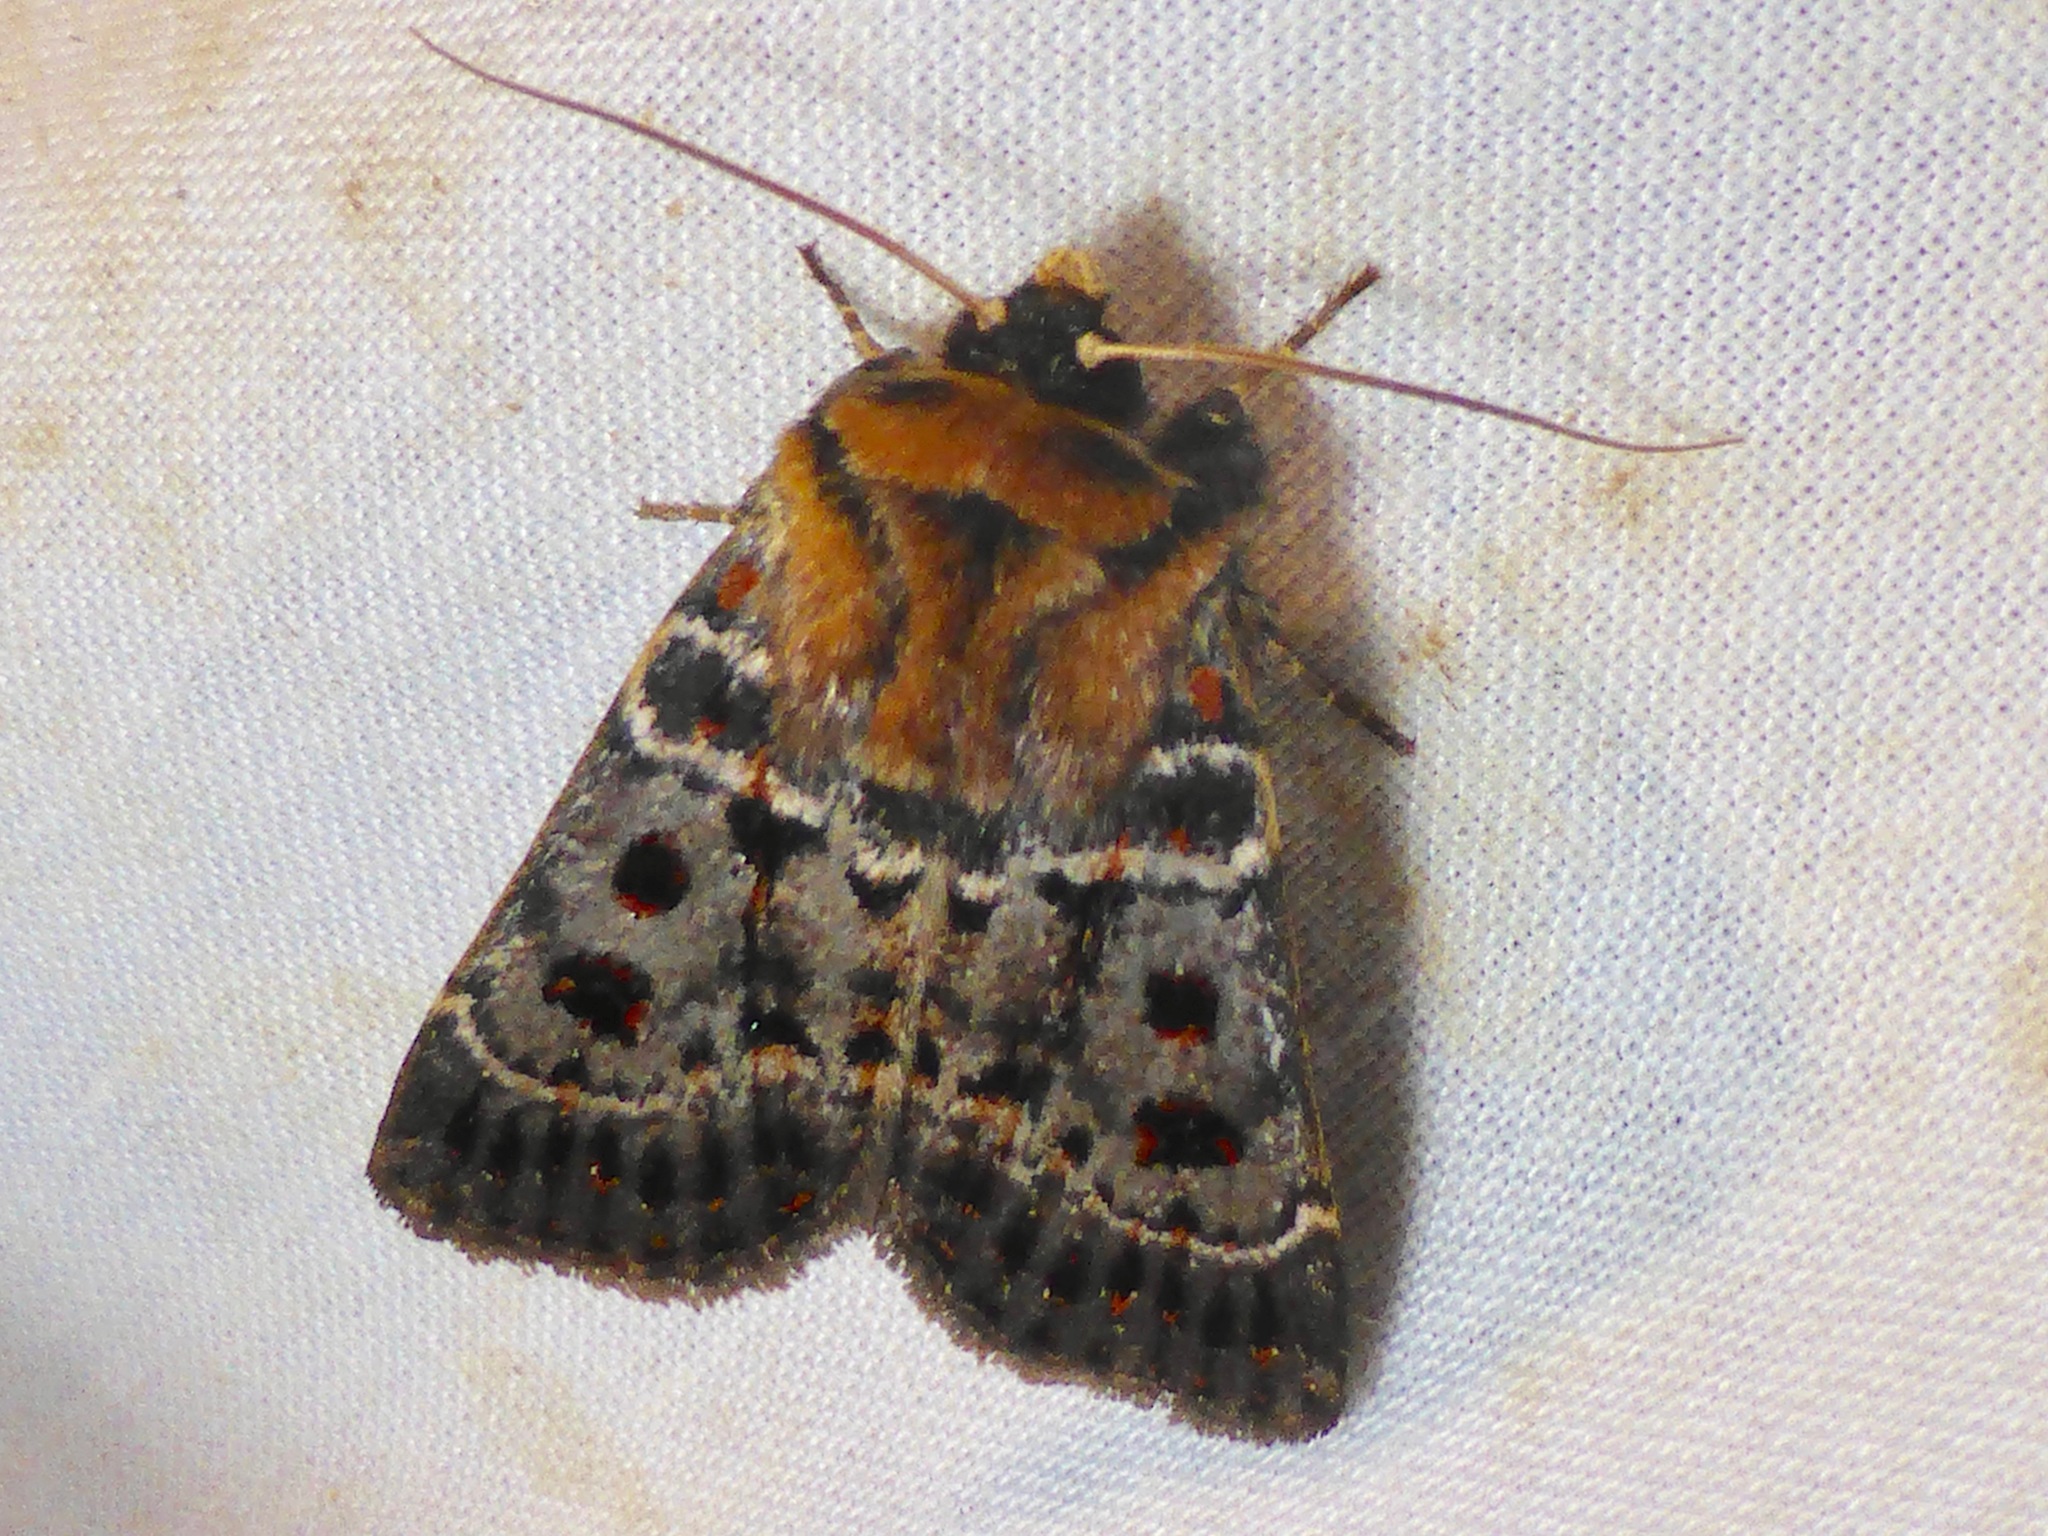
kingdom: Animalia
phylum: Arthropoda
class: Insecta
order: Lepidoptera
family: Noctuidae
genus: Proteuxoa
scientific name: Proteuxoa sanguinipuncta
